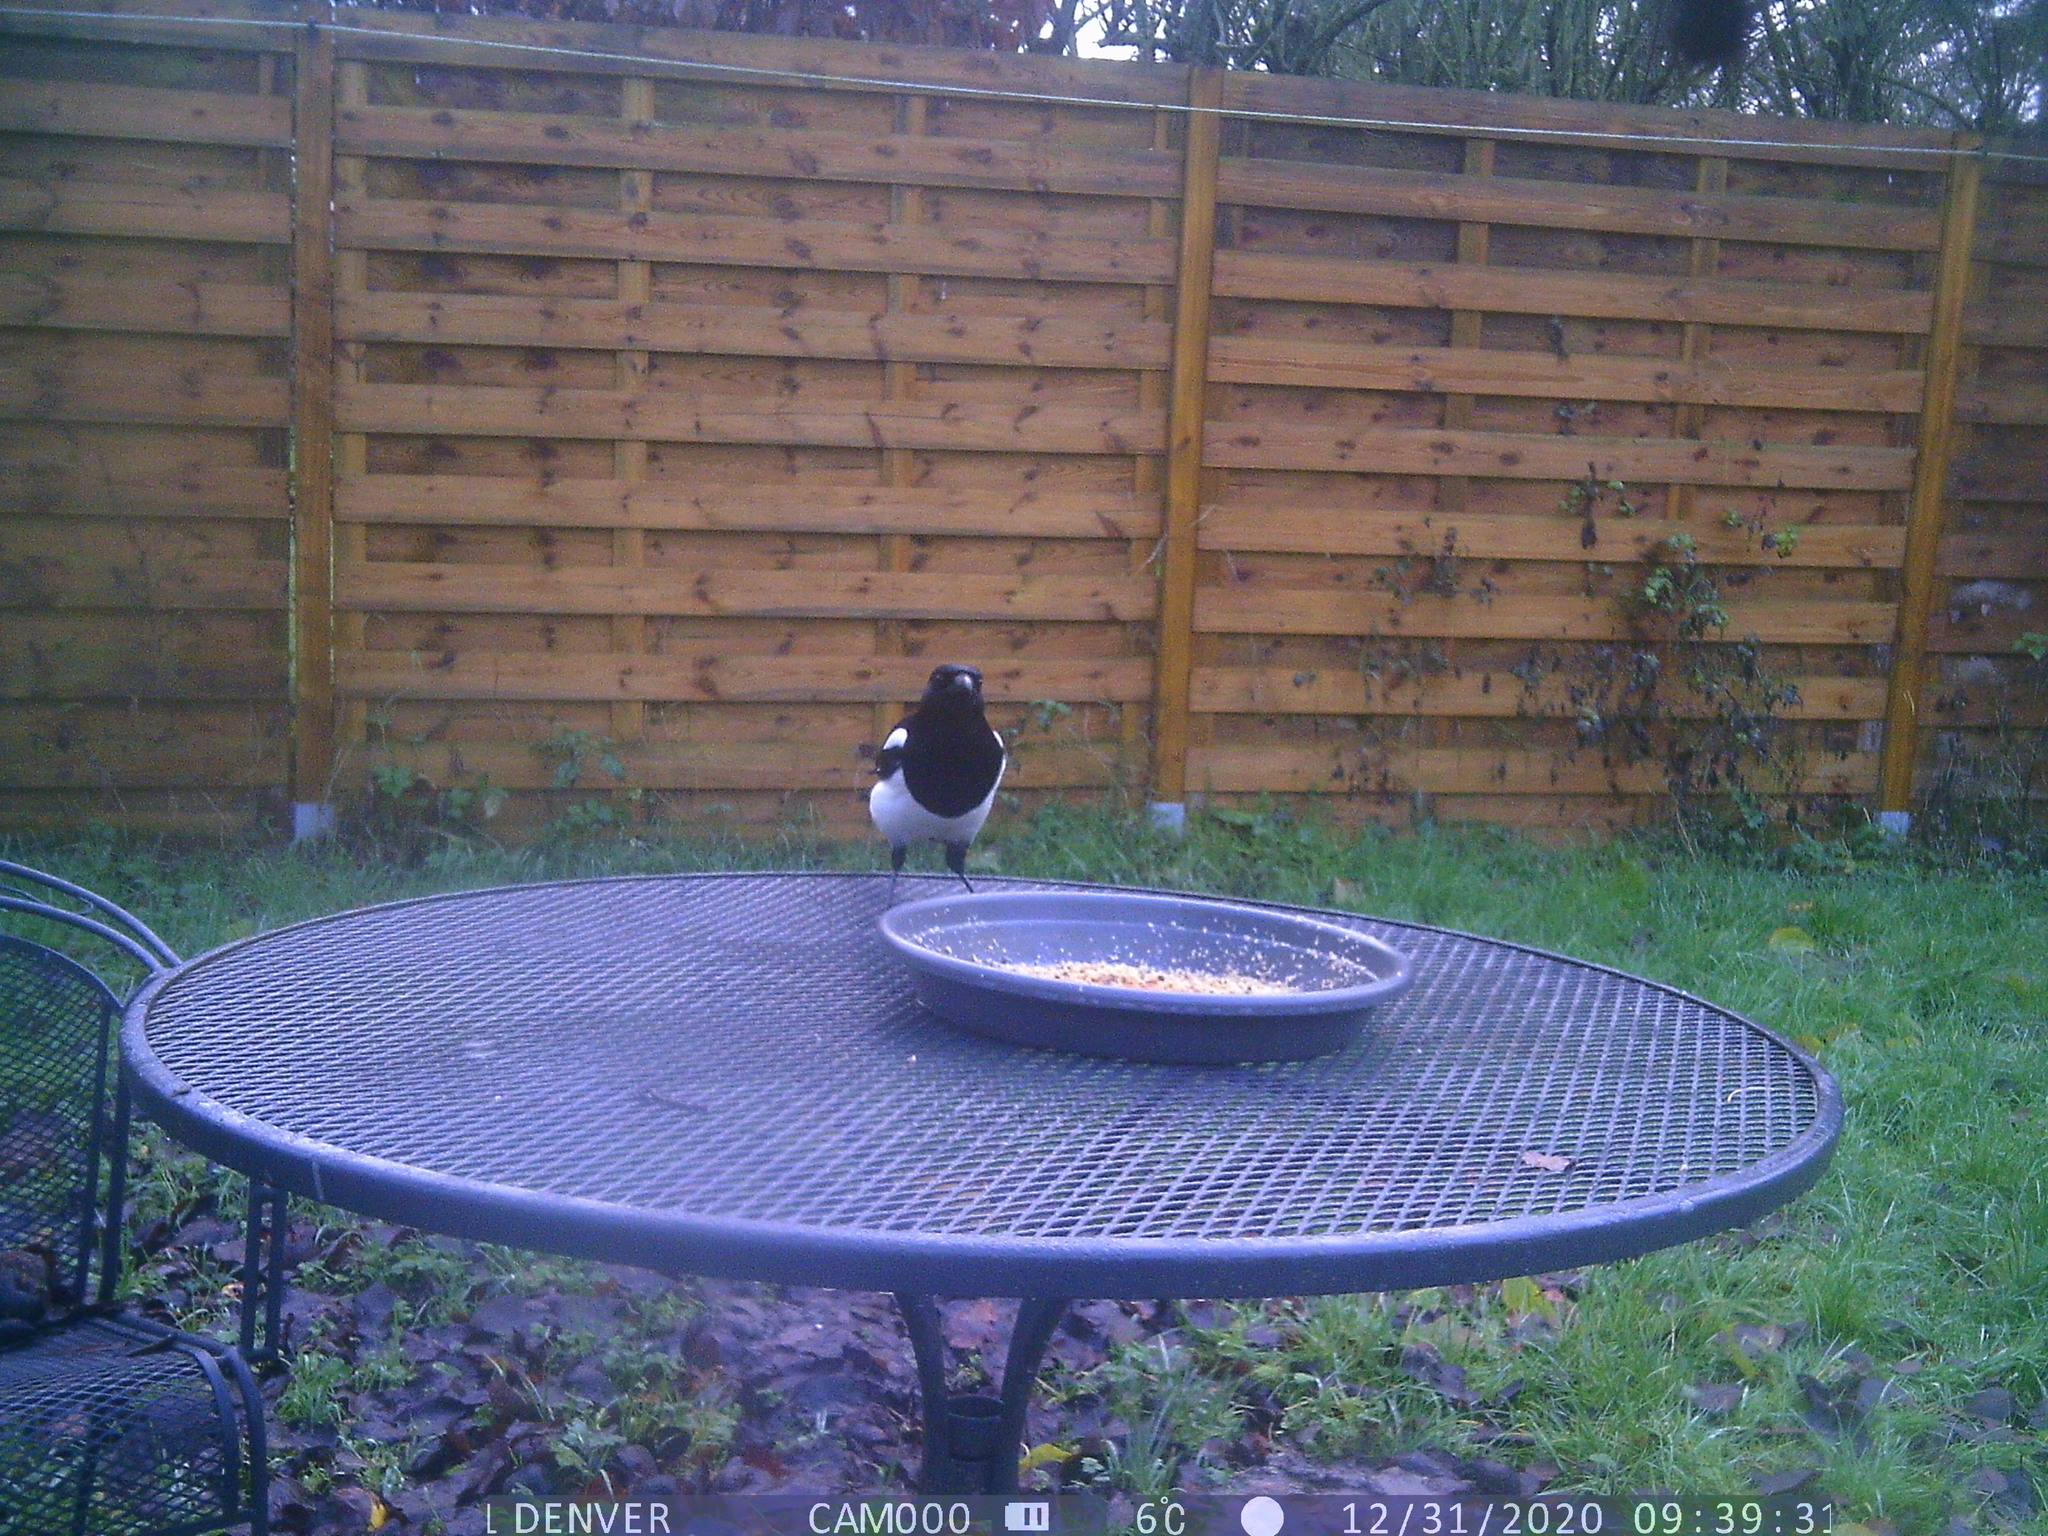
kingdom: Animalia
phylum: Chordata
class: Aves
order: Passeriformes
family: Corvidae
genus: Pica
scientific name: Pica pica
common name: Eurasian magpie
